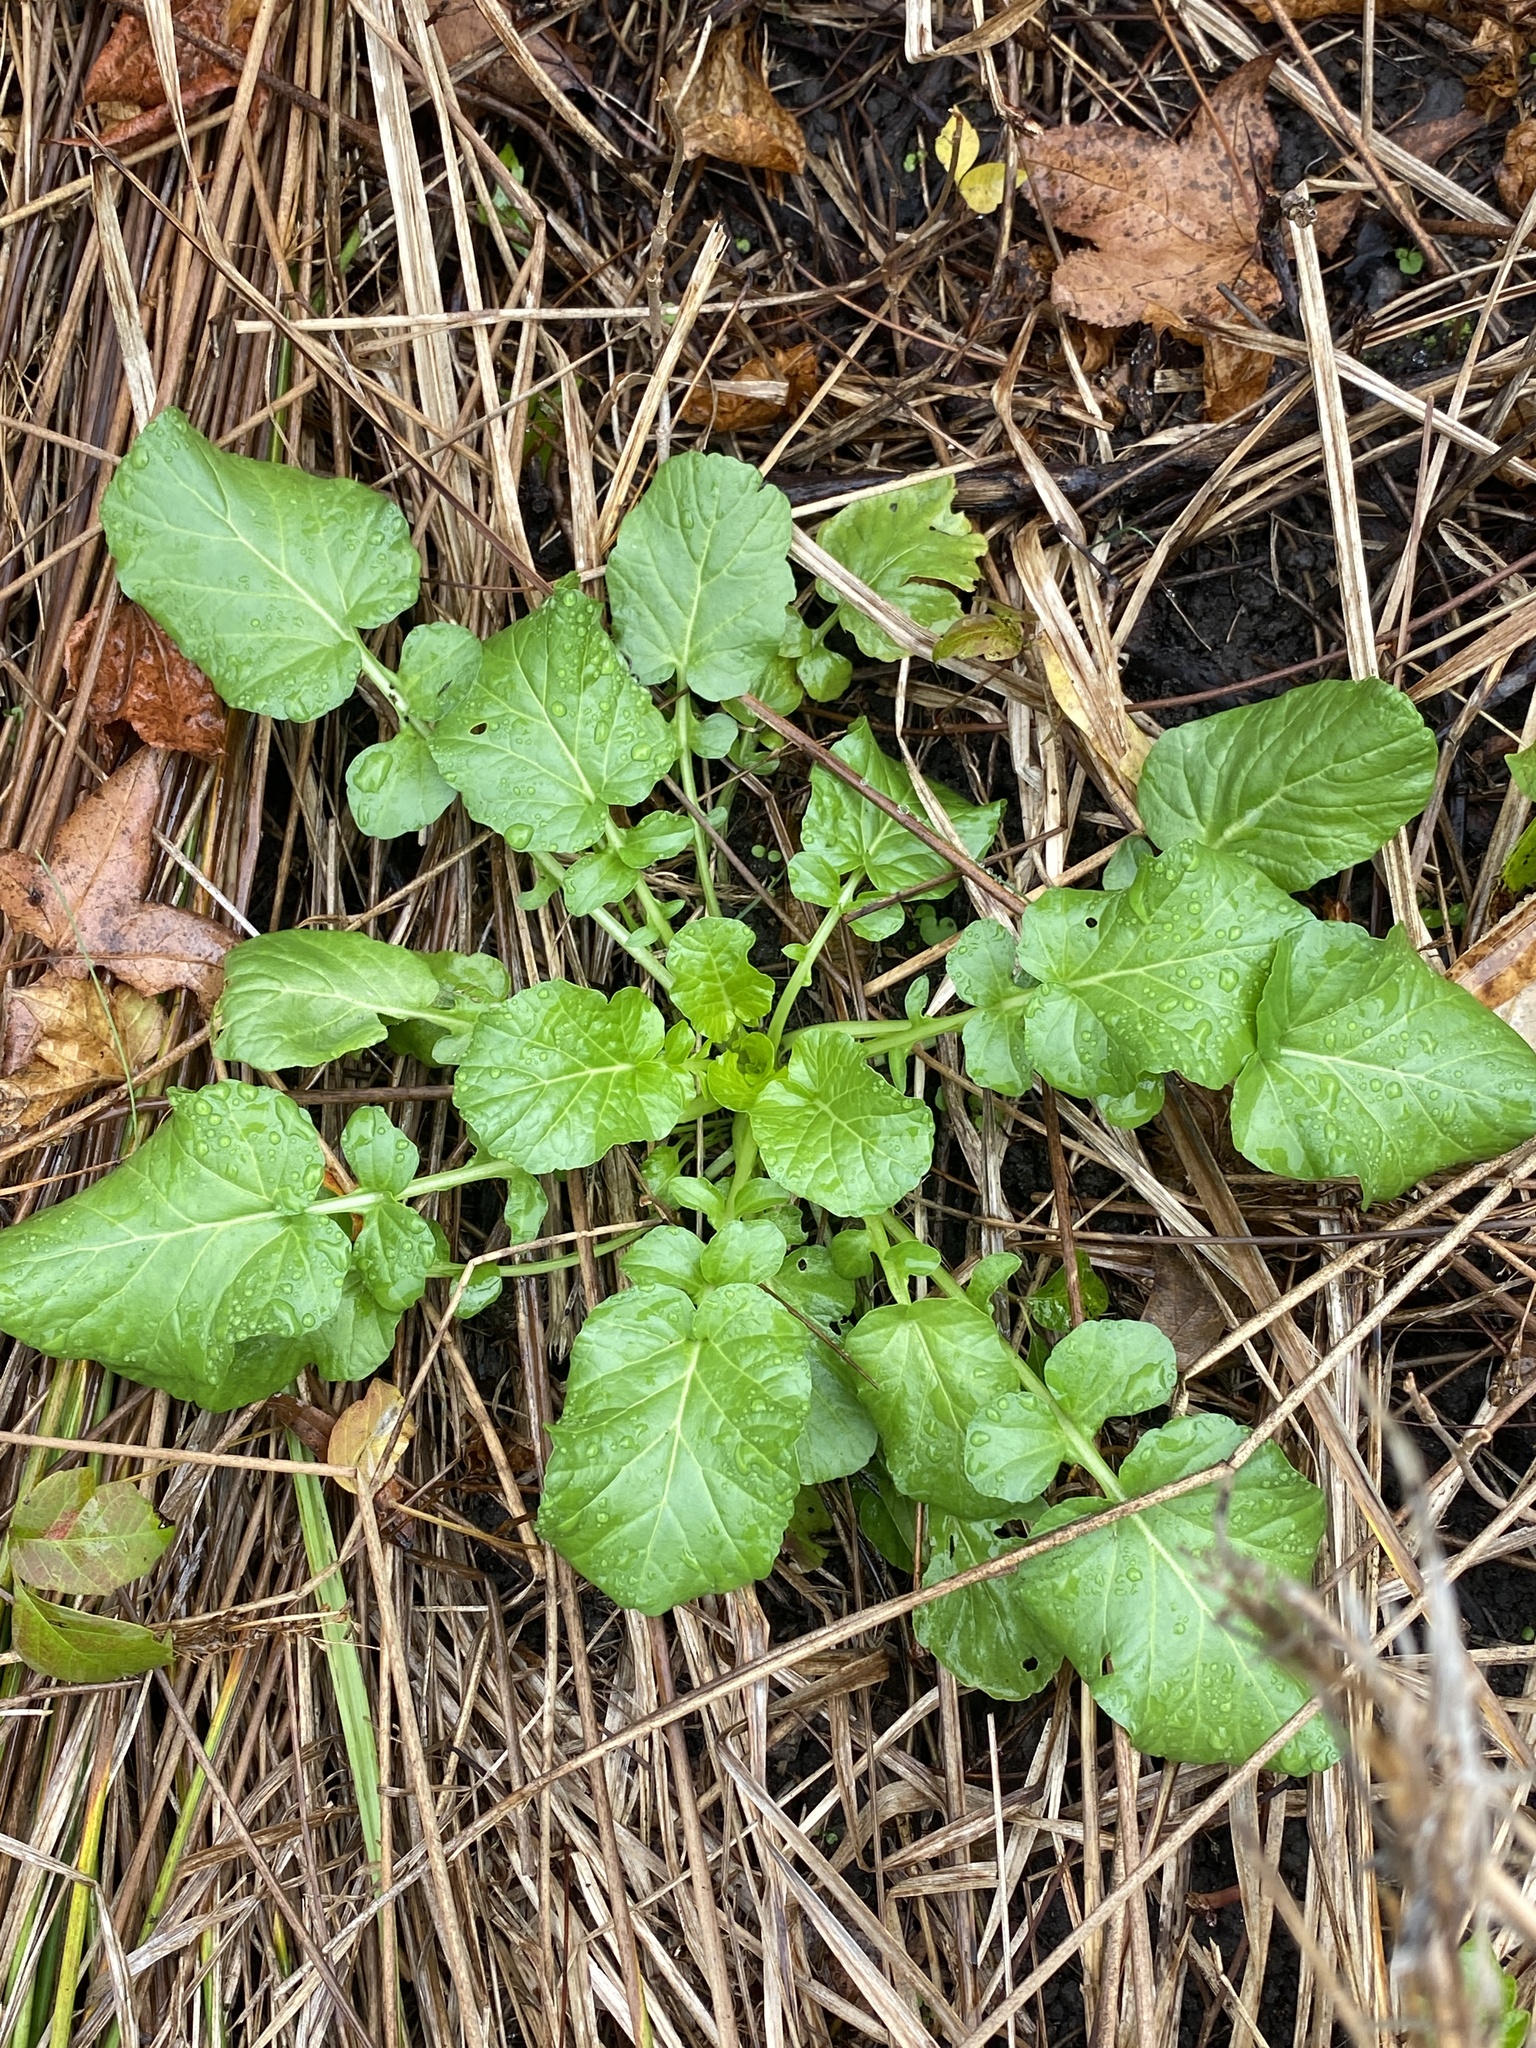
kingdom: Plantae
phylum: Tracheophyta
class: Magnoliopsida
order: Brassicales
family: Brassicaceae
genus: Barbarea
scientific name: Barbarea vulgaris
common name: Cressy-greens
